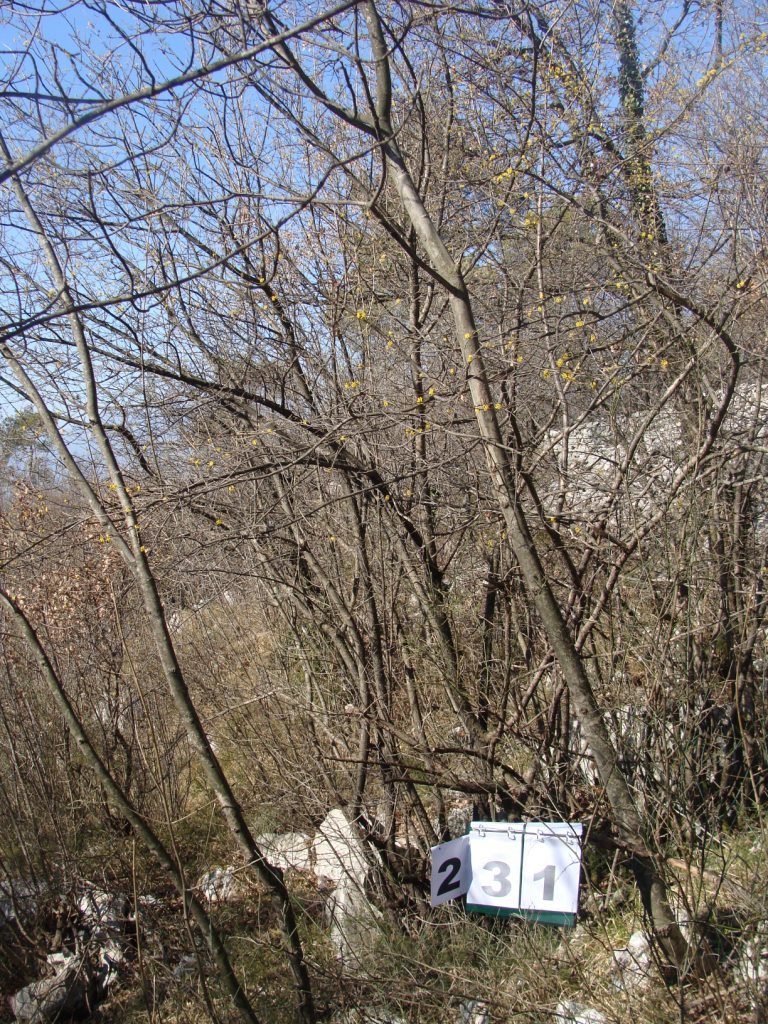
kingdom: Plantae
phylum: Tracheophyta
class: Magnoliopsida
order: Cornales
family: Cornaceae
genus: Cornus
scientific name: Cornus mas
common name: Cornelian-cherry
